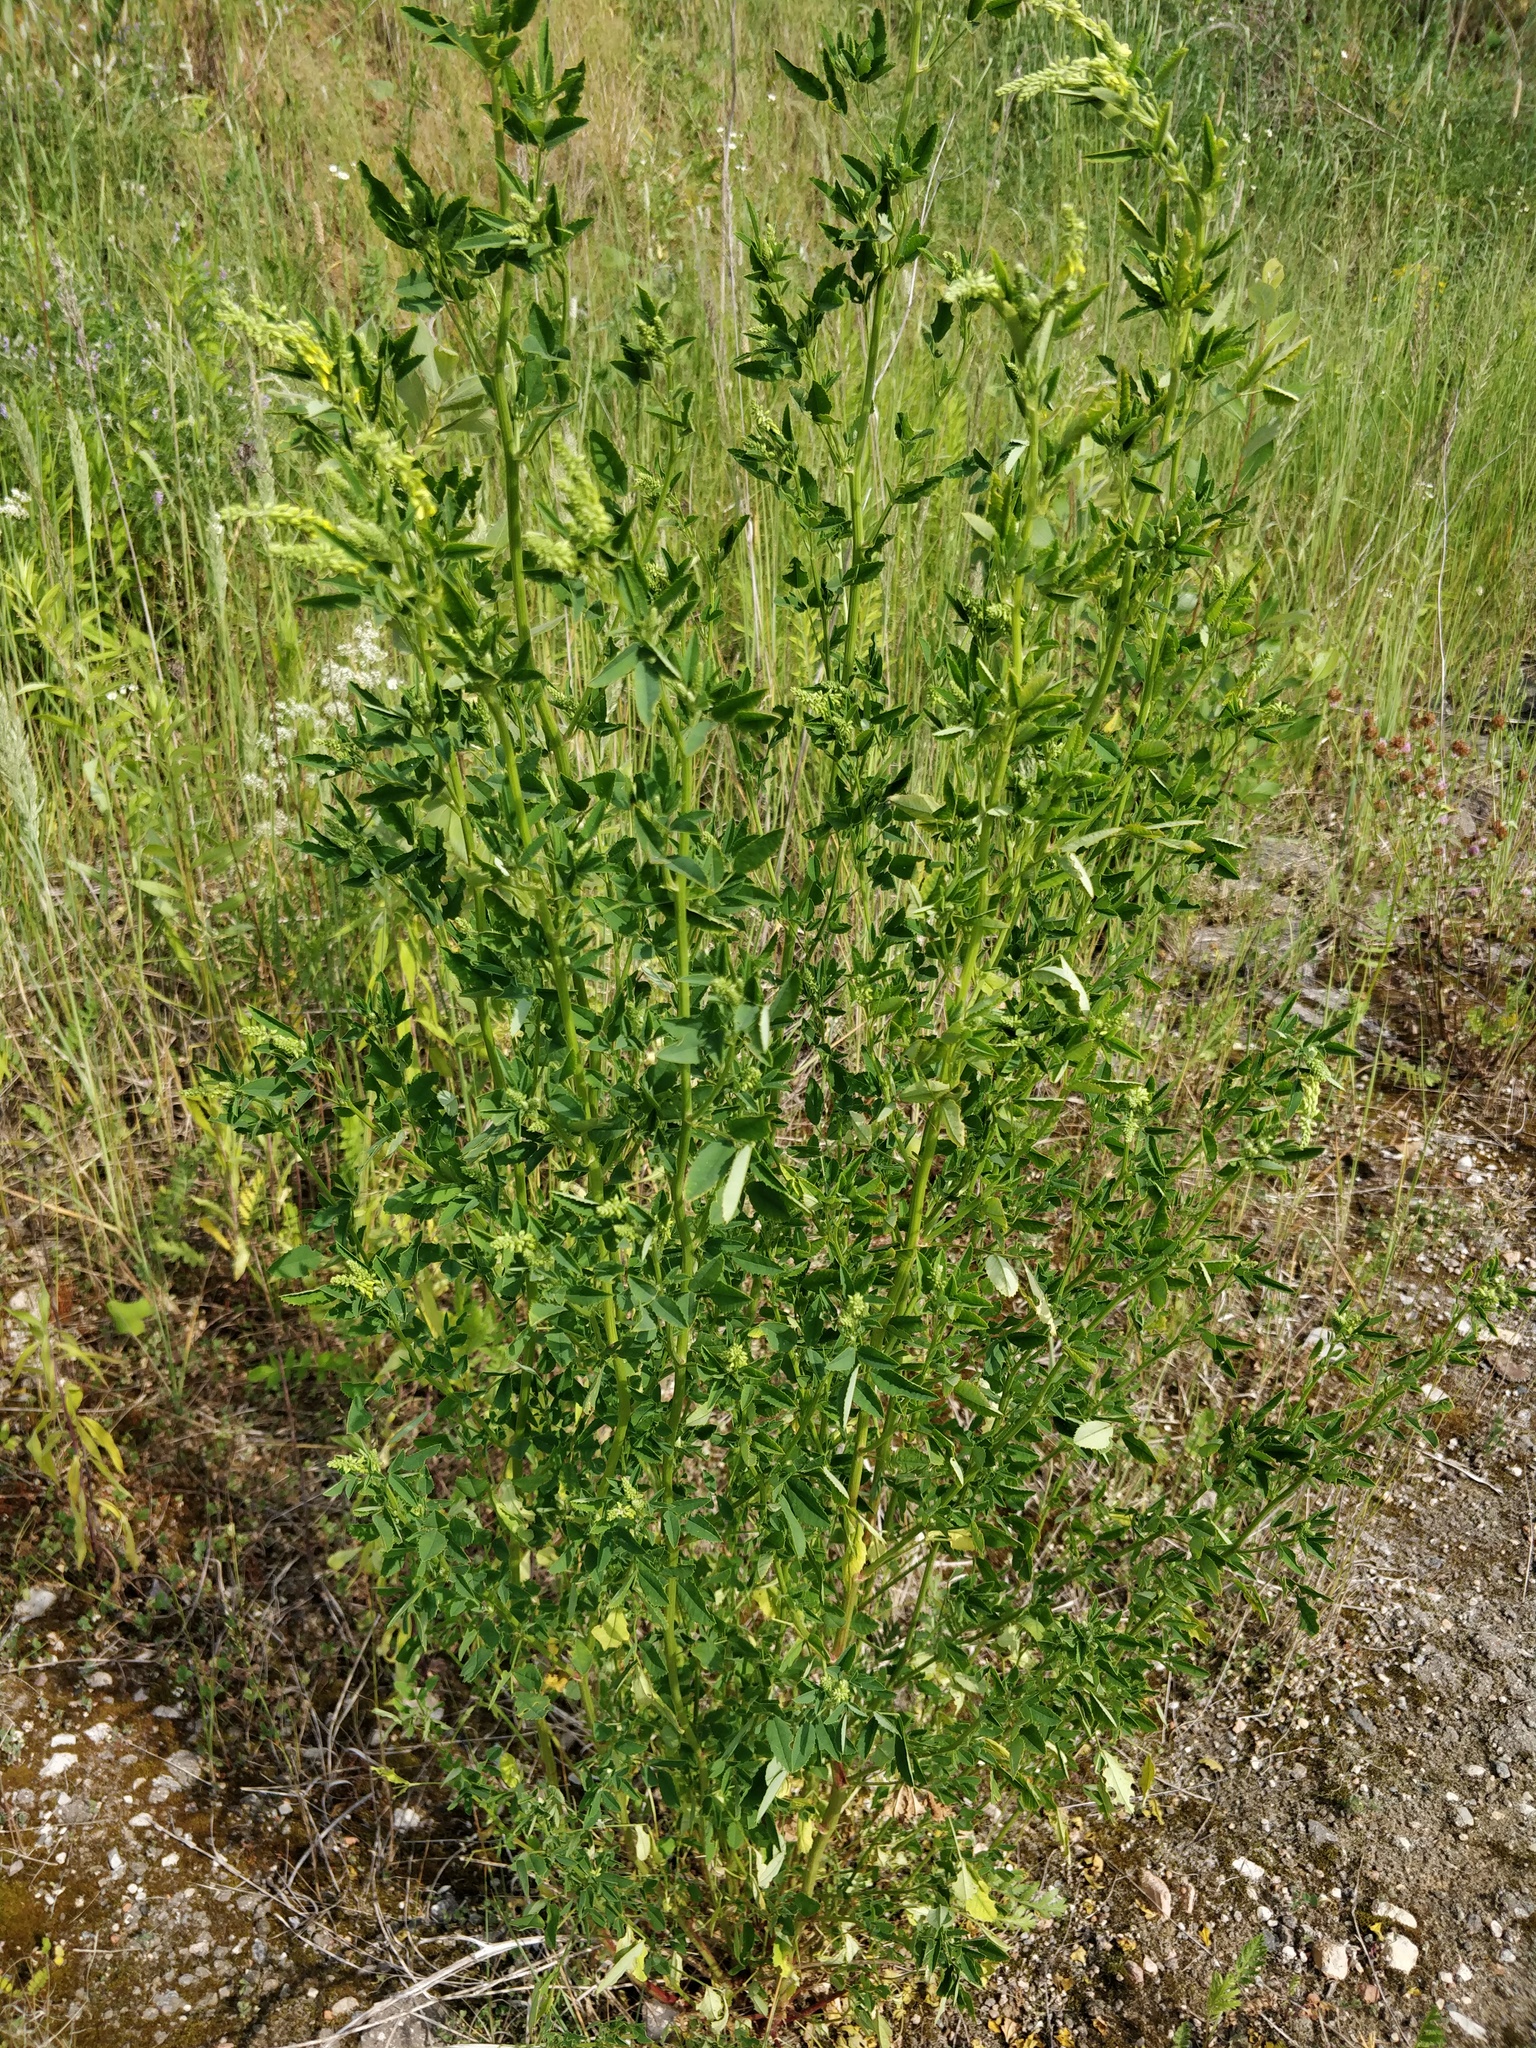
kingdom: Plantae
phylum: Tracheophyta
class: Magnoliopsida
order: Fabales
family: Fabaceae
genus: Melilotus
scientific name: Melilotus officinalis
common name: Sweetclover
